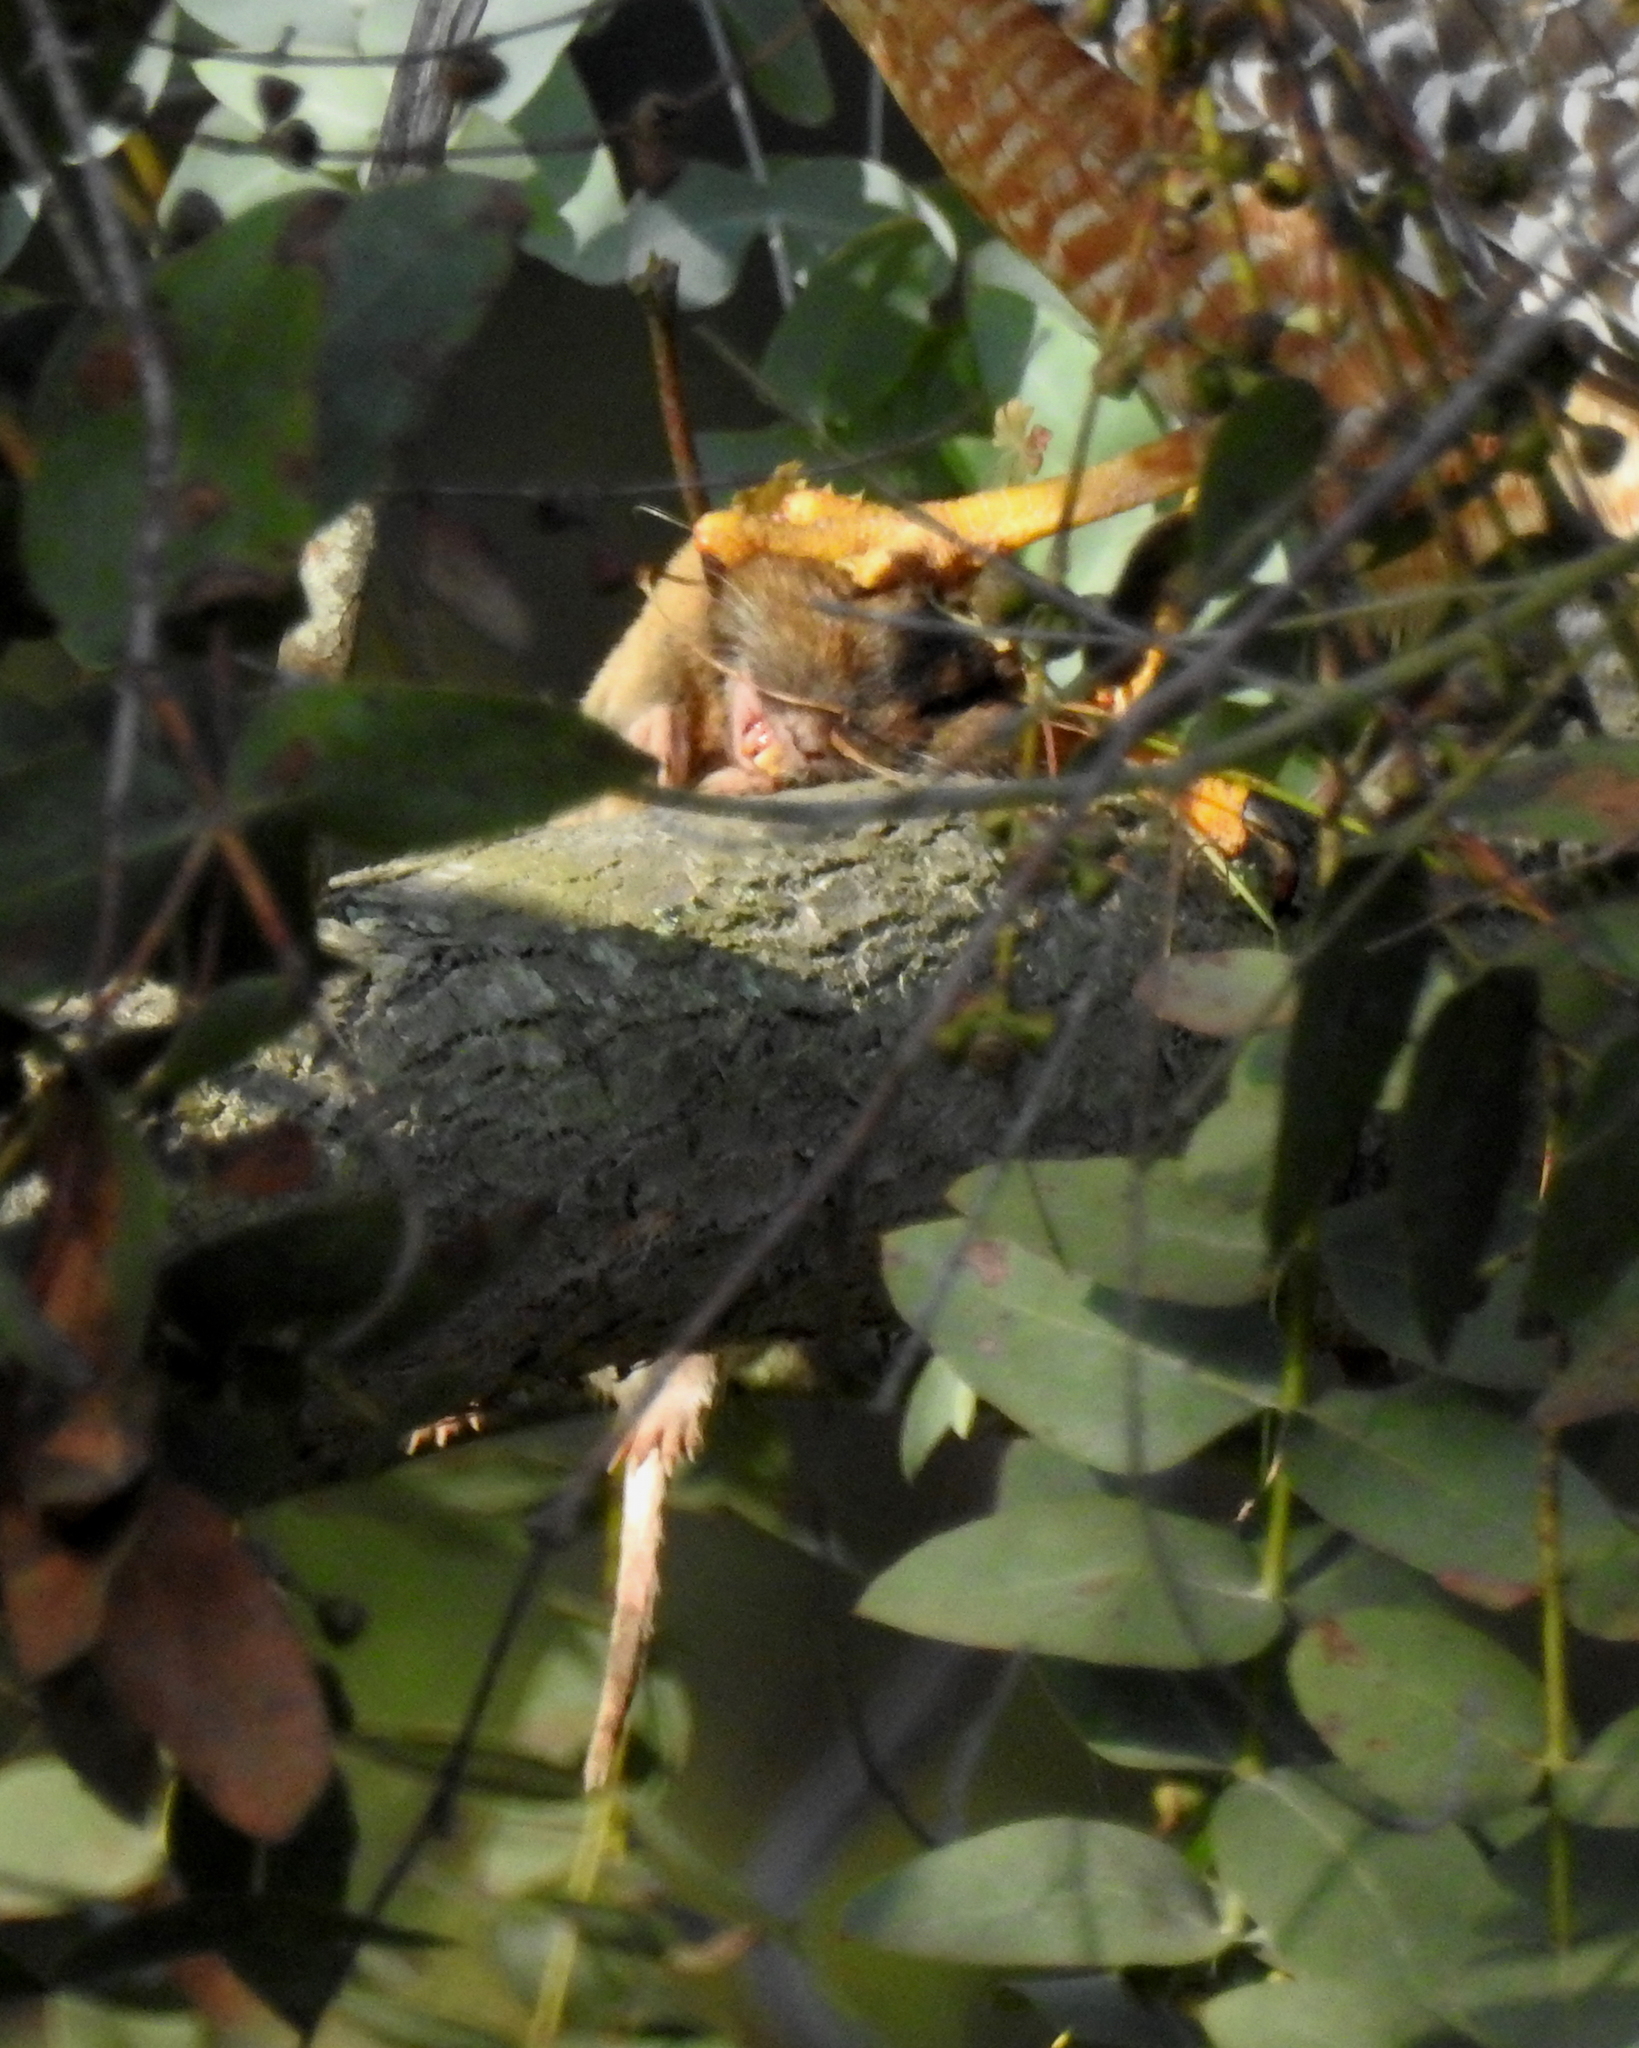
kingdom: Animalia
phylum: Chordata
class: Mammalia
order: Rodentia
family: Geomyidae
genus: Thomomys
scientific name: Thomomys bottae
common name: Botta's pocket gopher
